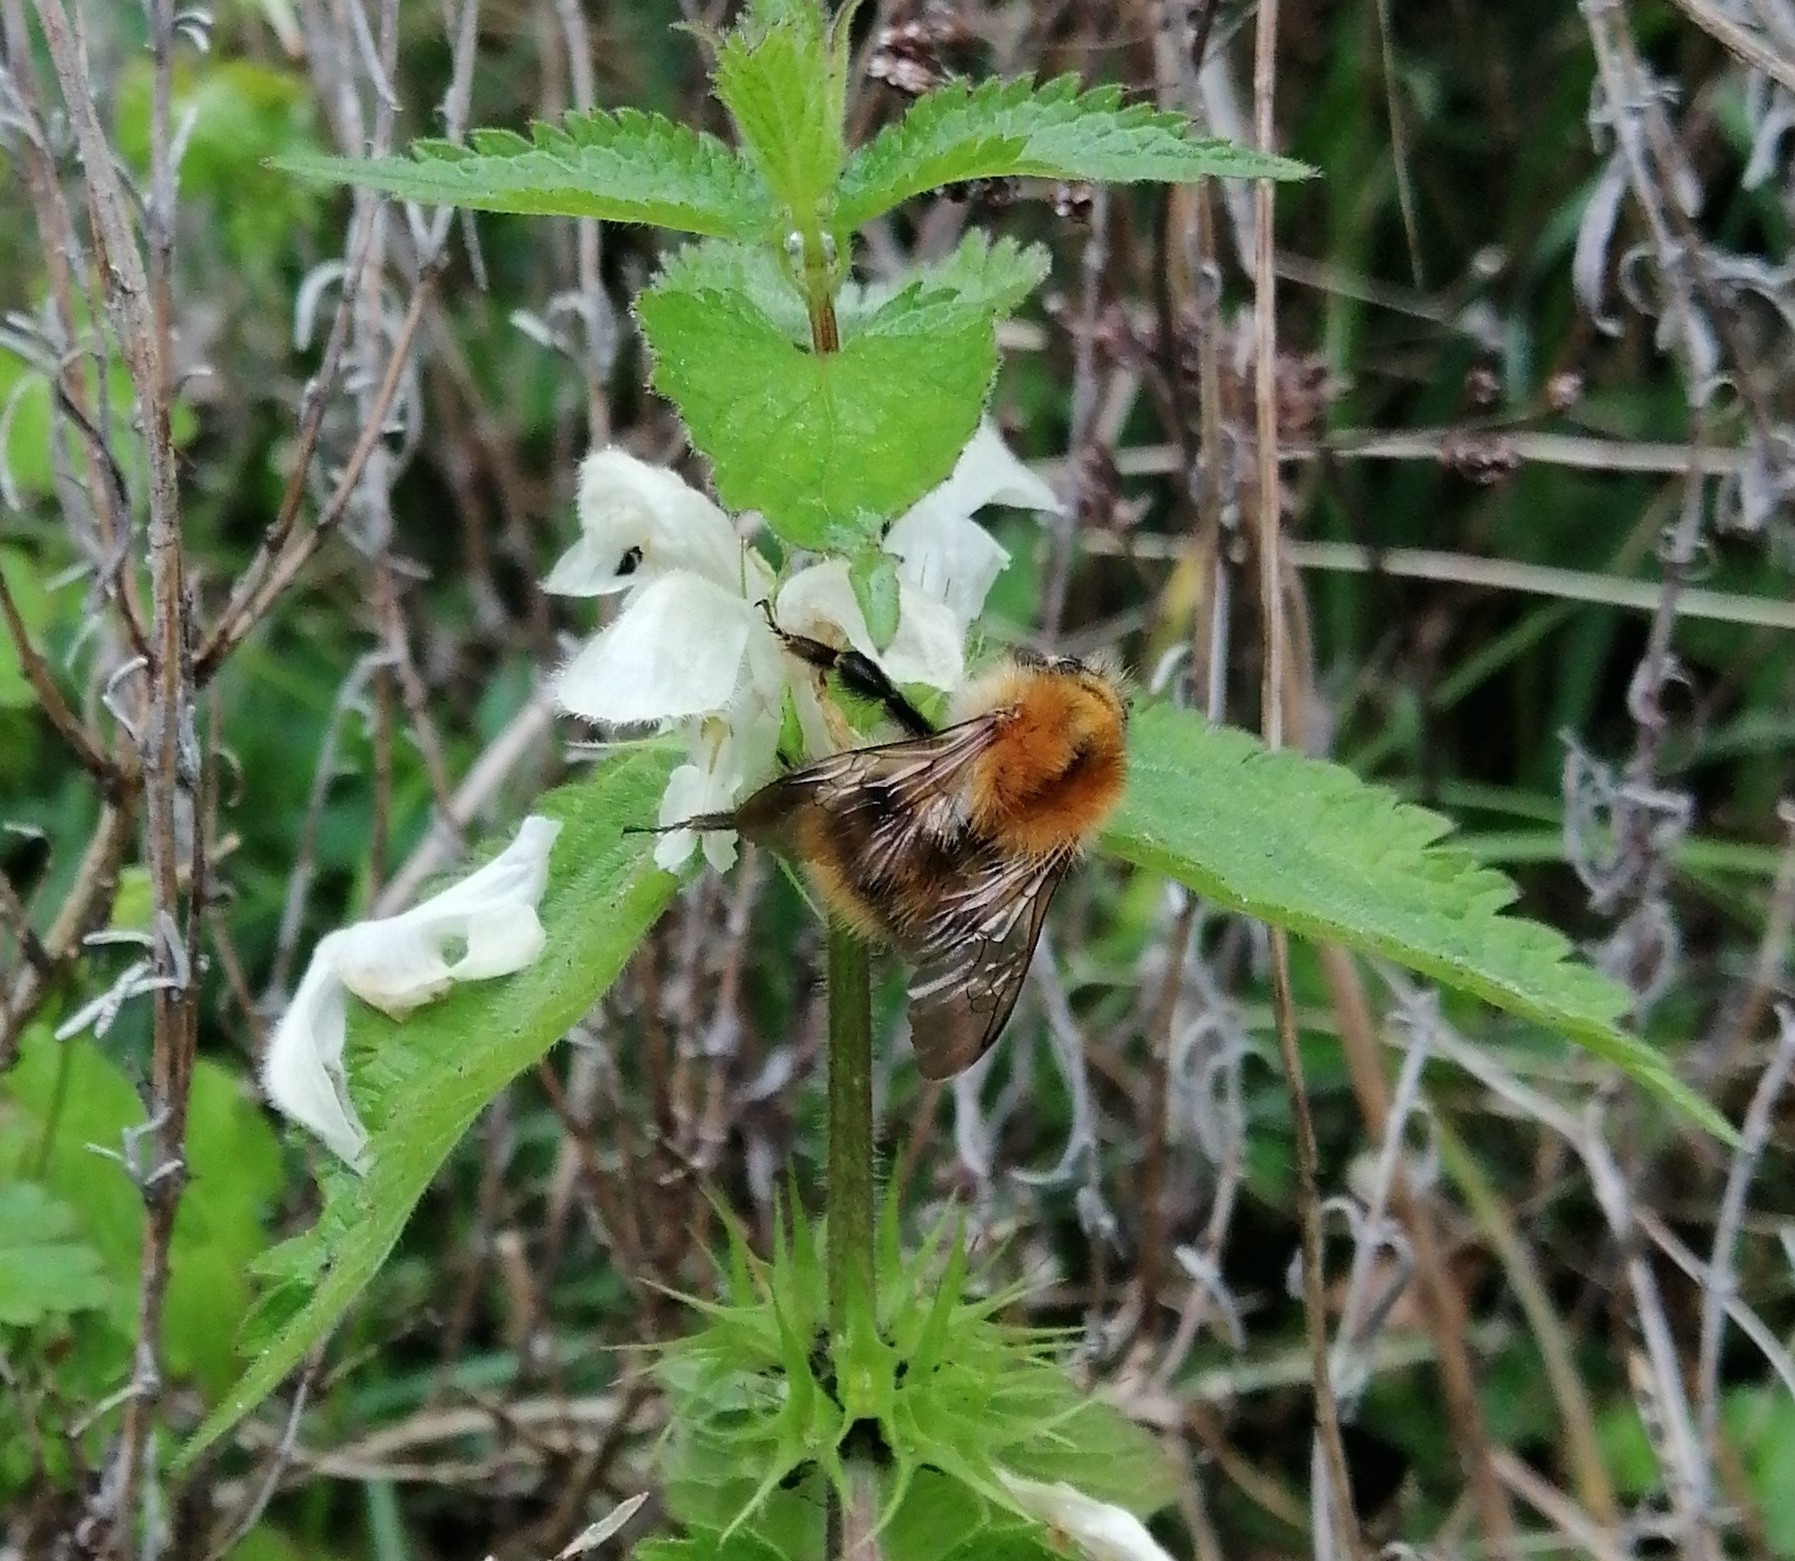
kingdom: Animalia
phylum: Arthropoda
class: Insecta
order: Hymenoptera
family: Apidae
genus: Bombus
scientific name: Bombus pascuorum
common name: Common carder bee
